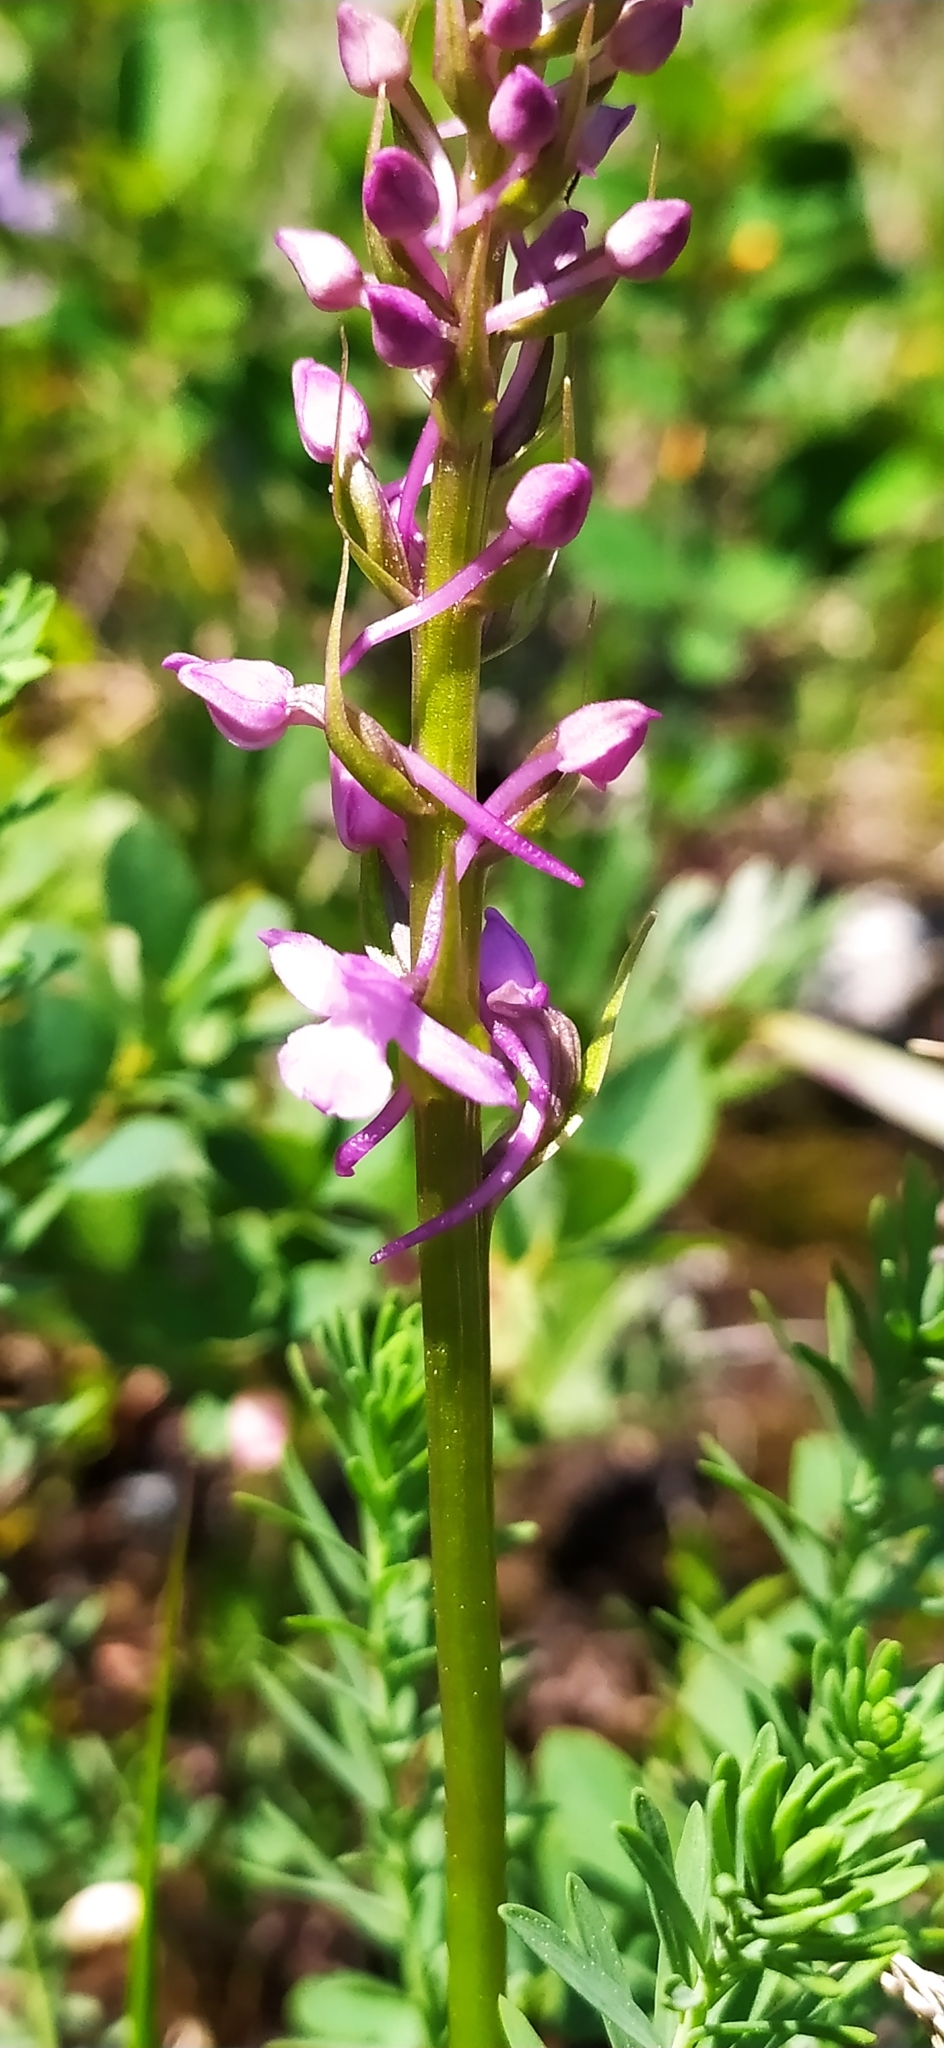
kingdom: Plantae
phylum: Tracheophyta
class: Liliopsida
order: Asparagales
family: Orchidaceae
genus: Gymnadenia
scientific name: Gymnadenia conopsea
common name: Fragrant orchid
